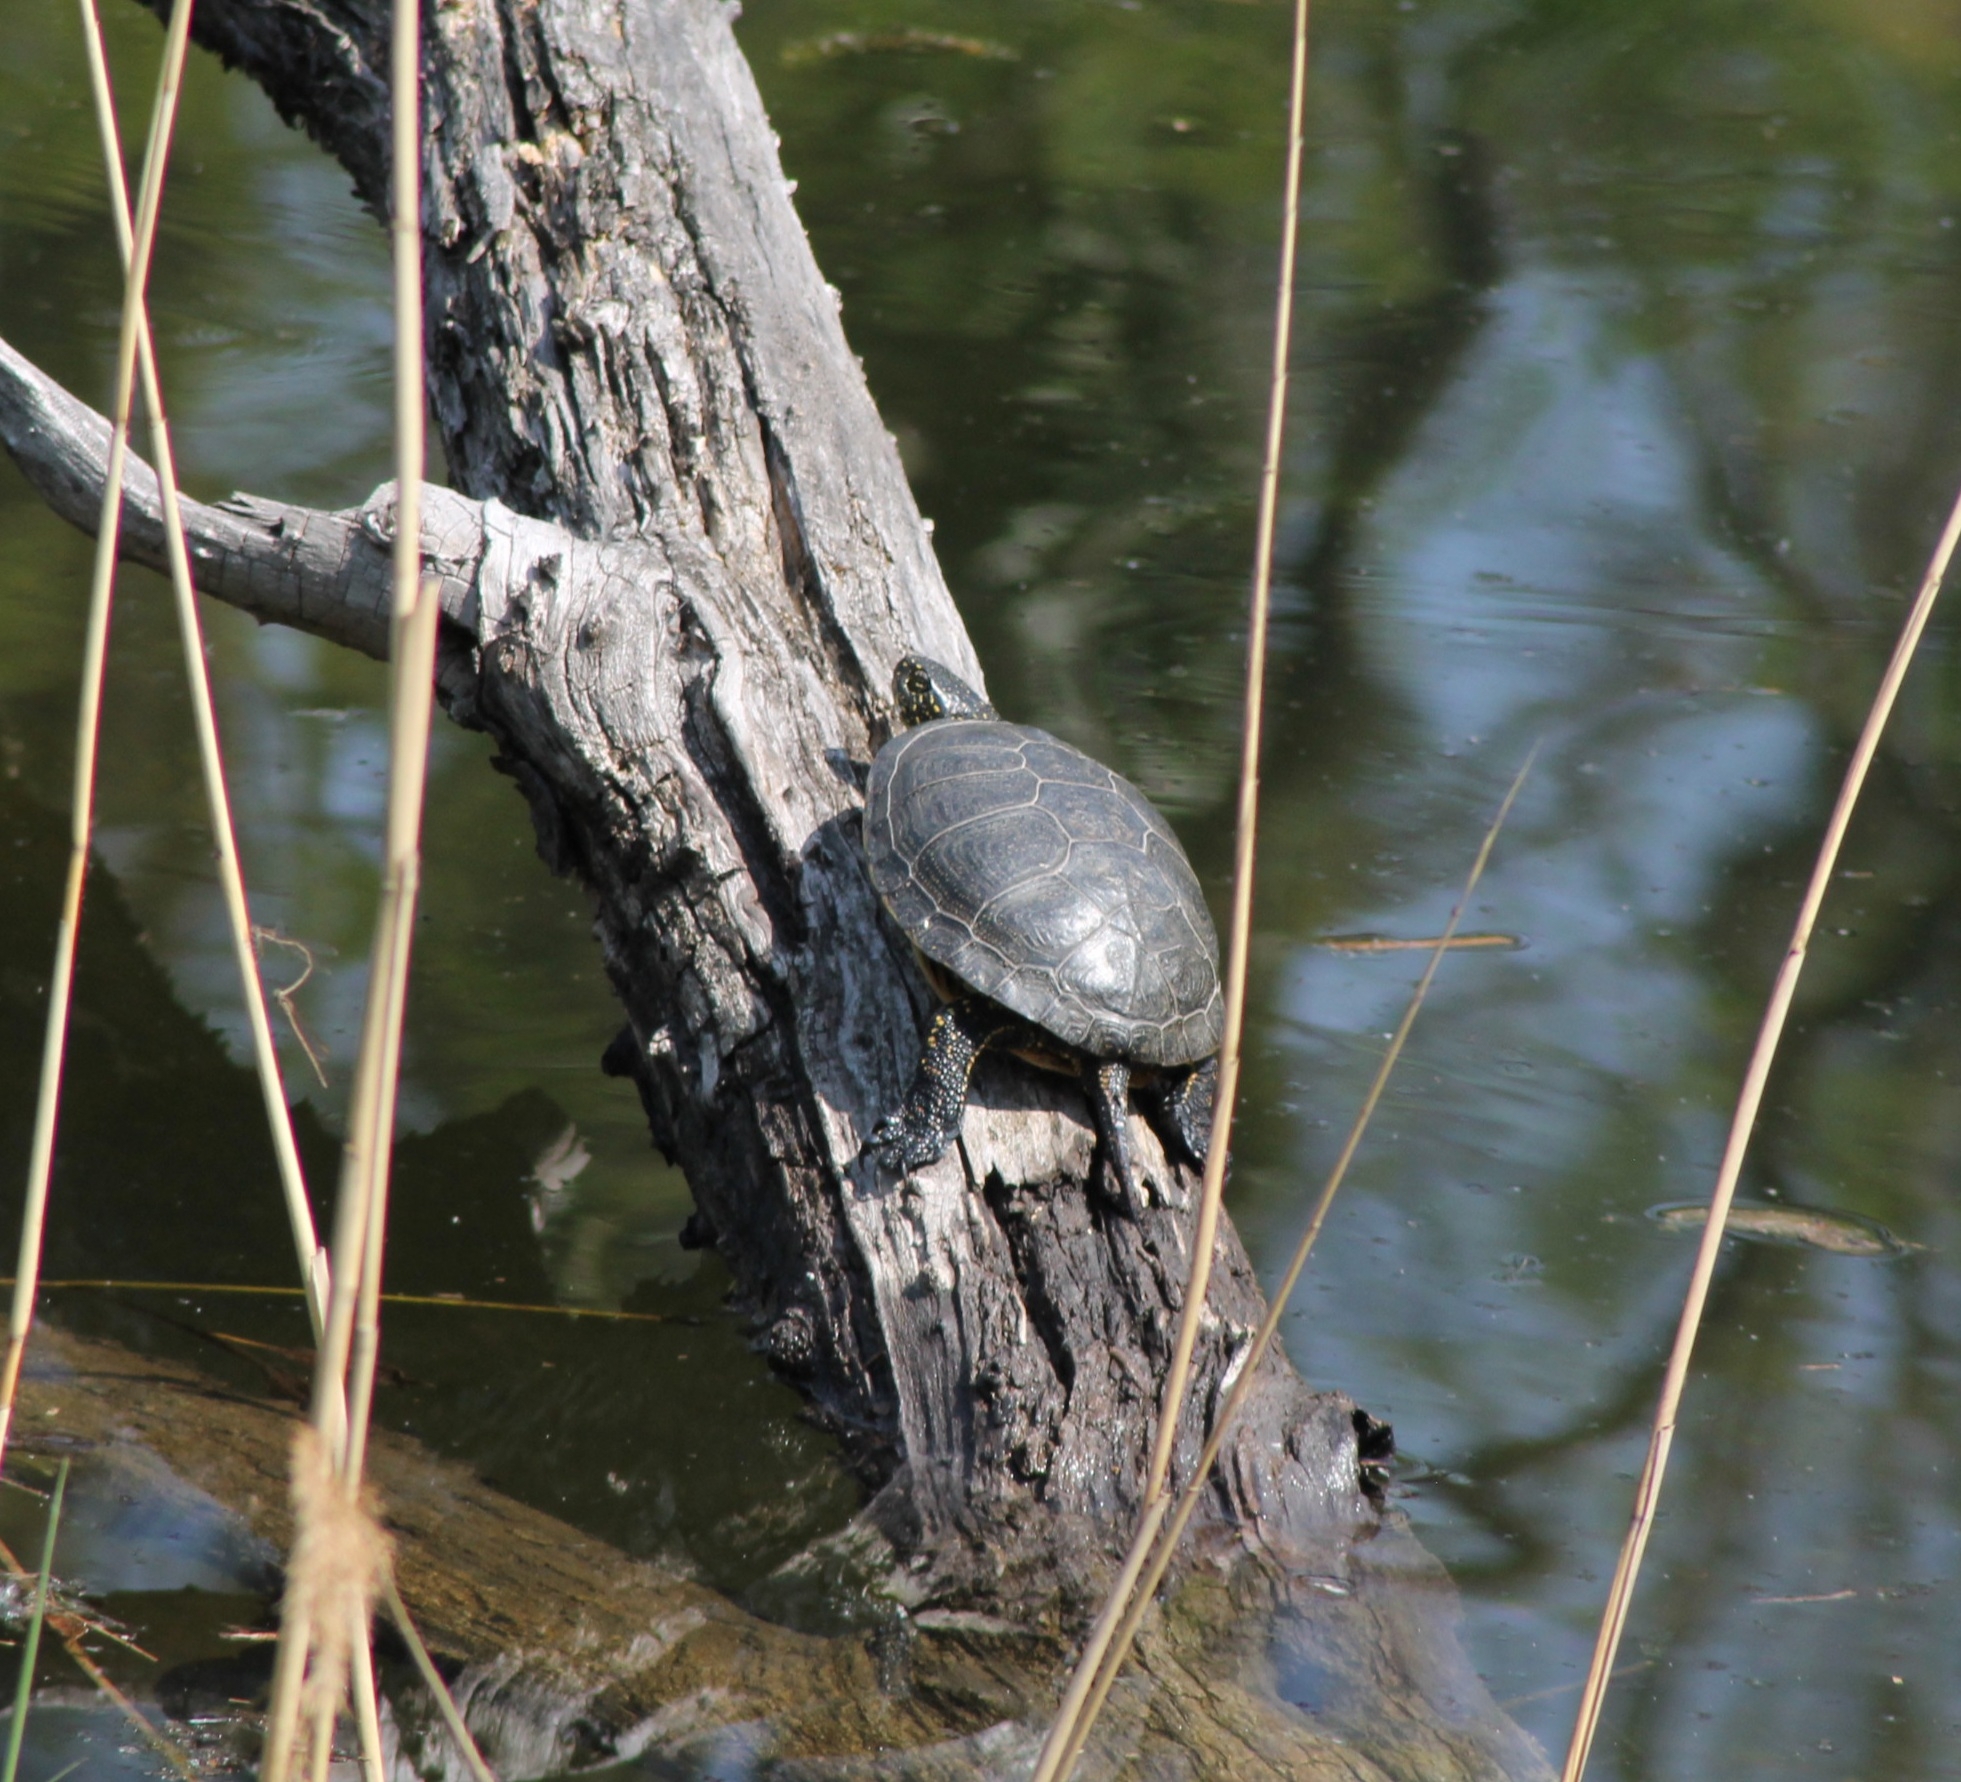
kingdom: Animalia
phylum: Chordata
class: Testudines
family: Emydidae
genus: Emys
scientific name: Emys orbicularis
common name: European pond turtle
